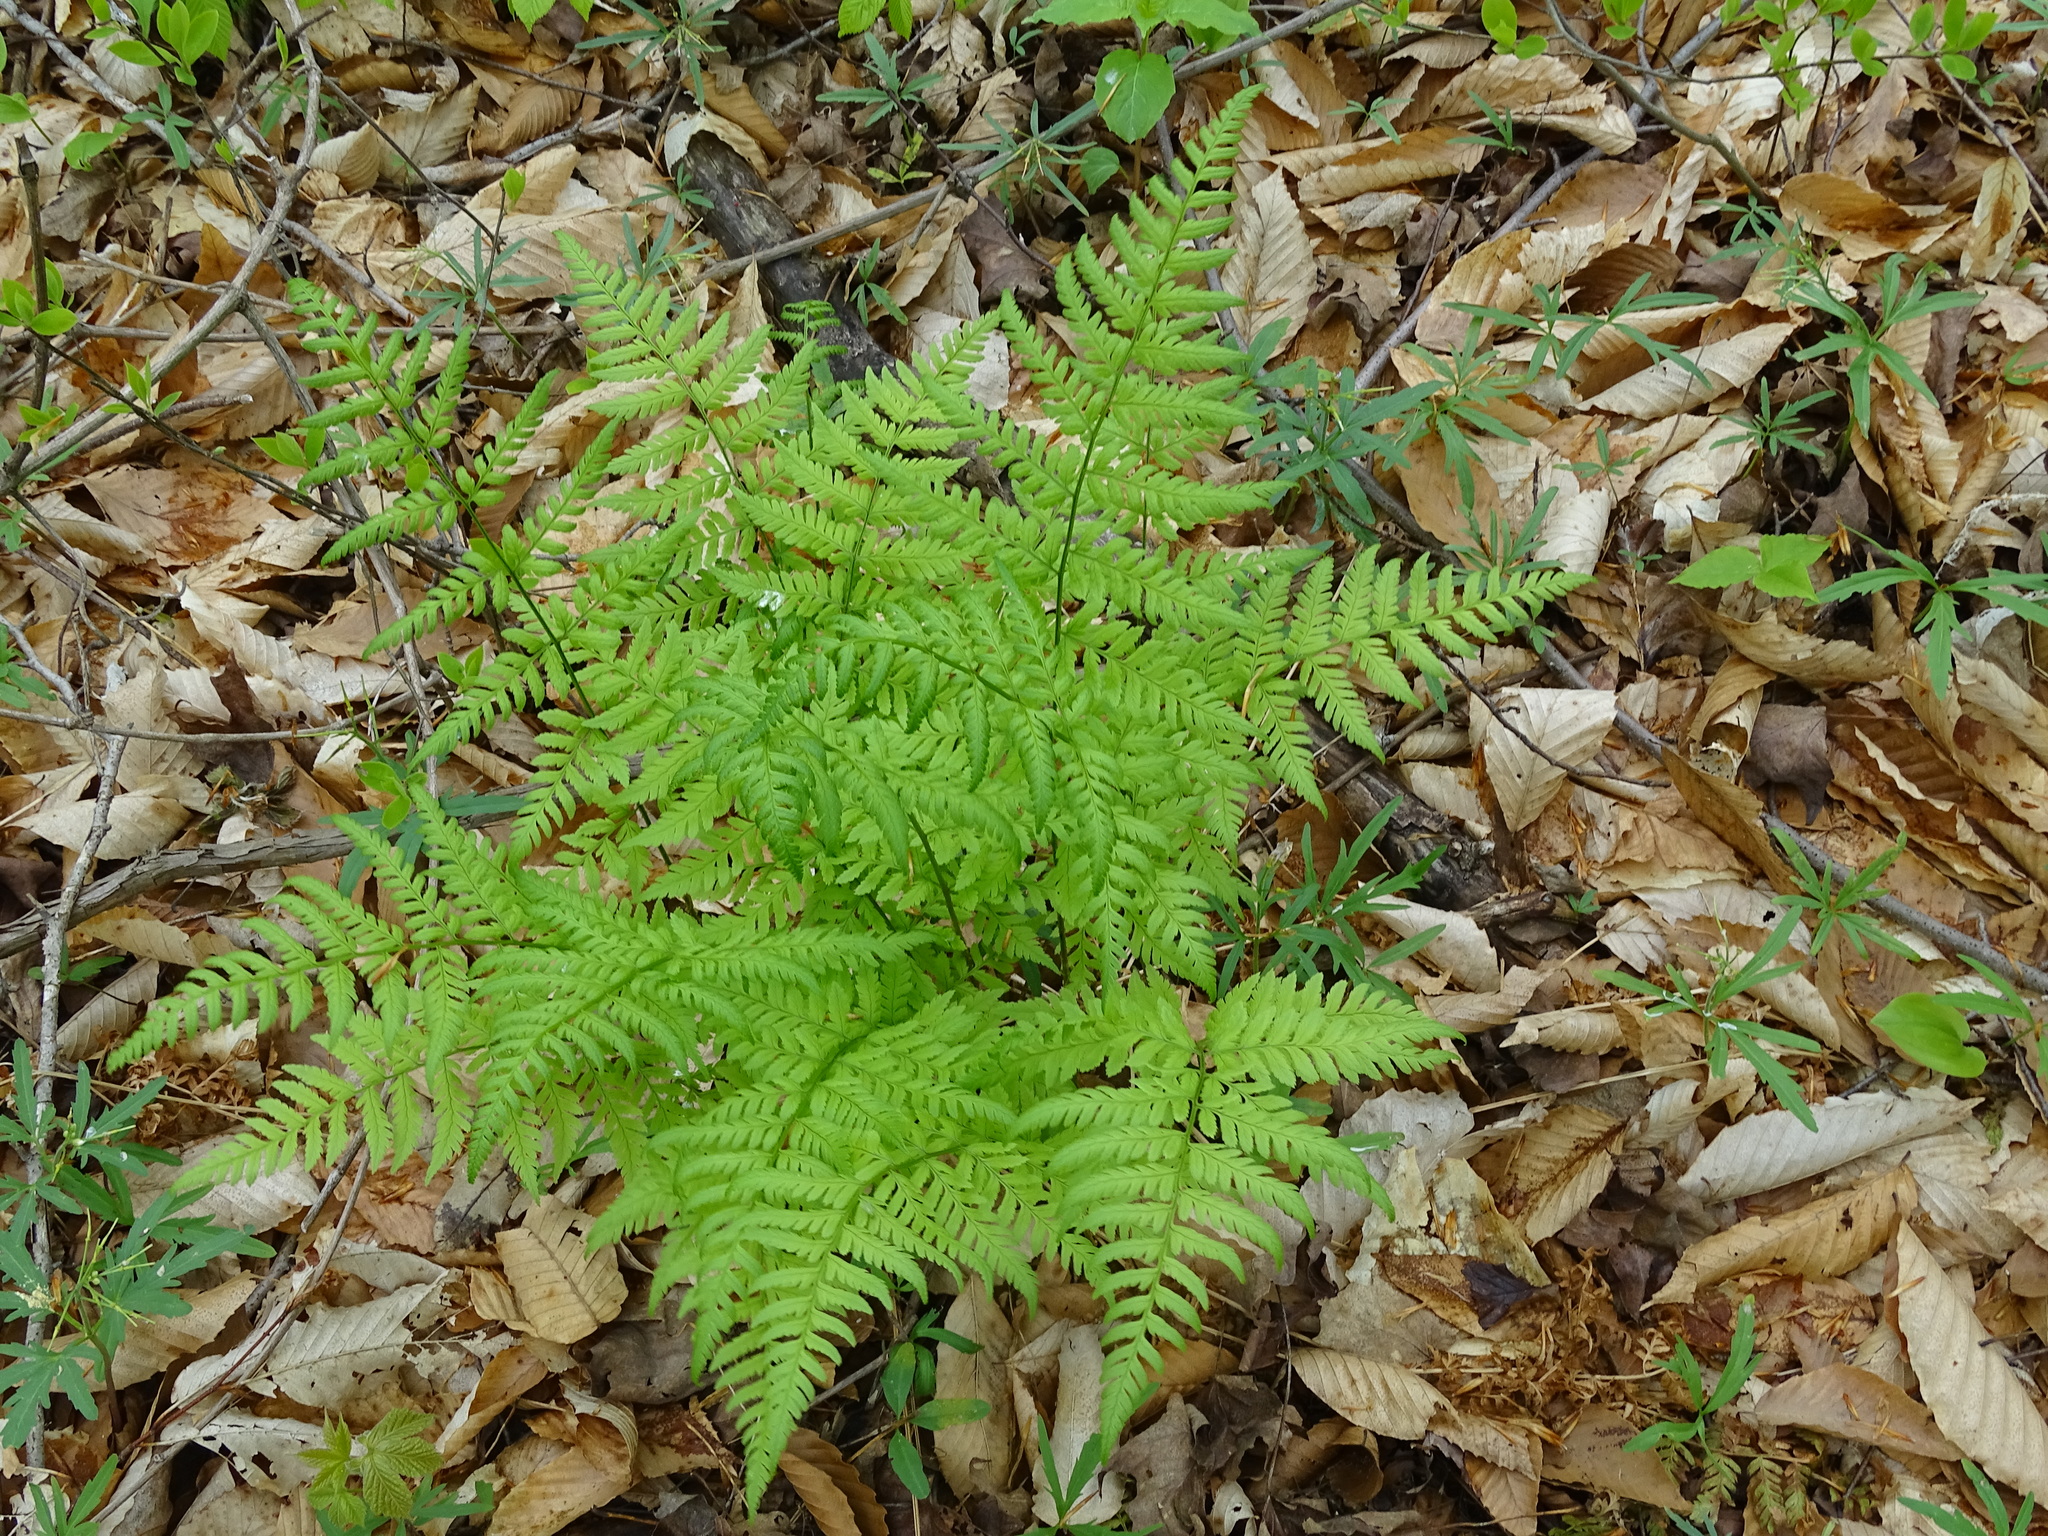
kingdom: Plantae
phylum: Tracheophyta
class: Polypodiopsida
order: Polypodiales
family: Dryopteridaceae
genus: Dryopteris
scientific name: Dryopteris carthusiana
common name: Narrow buckler-fern
